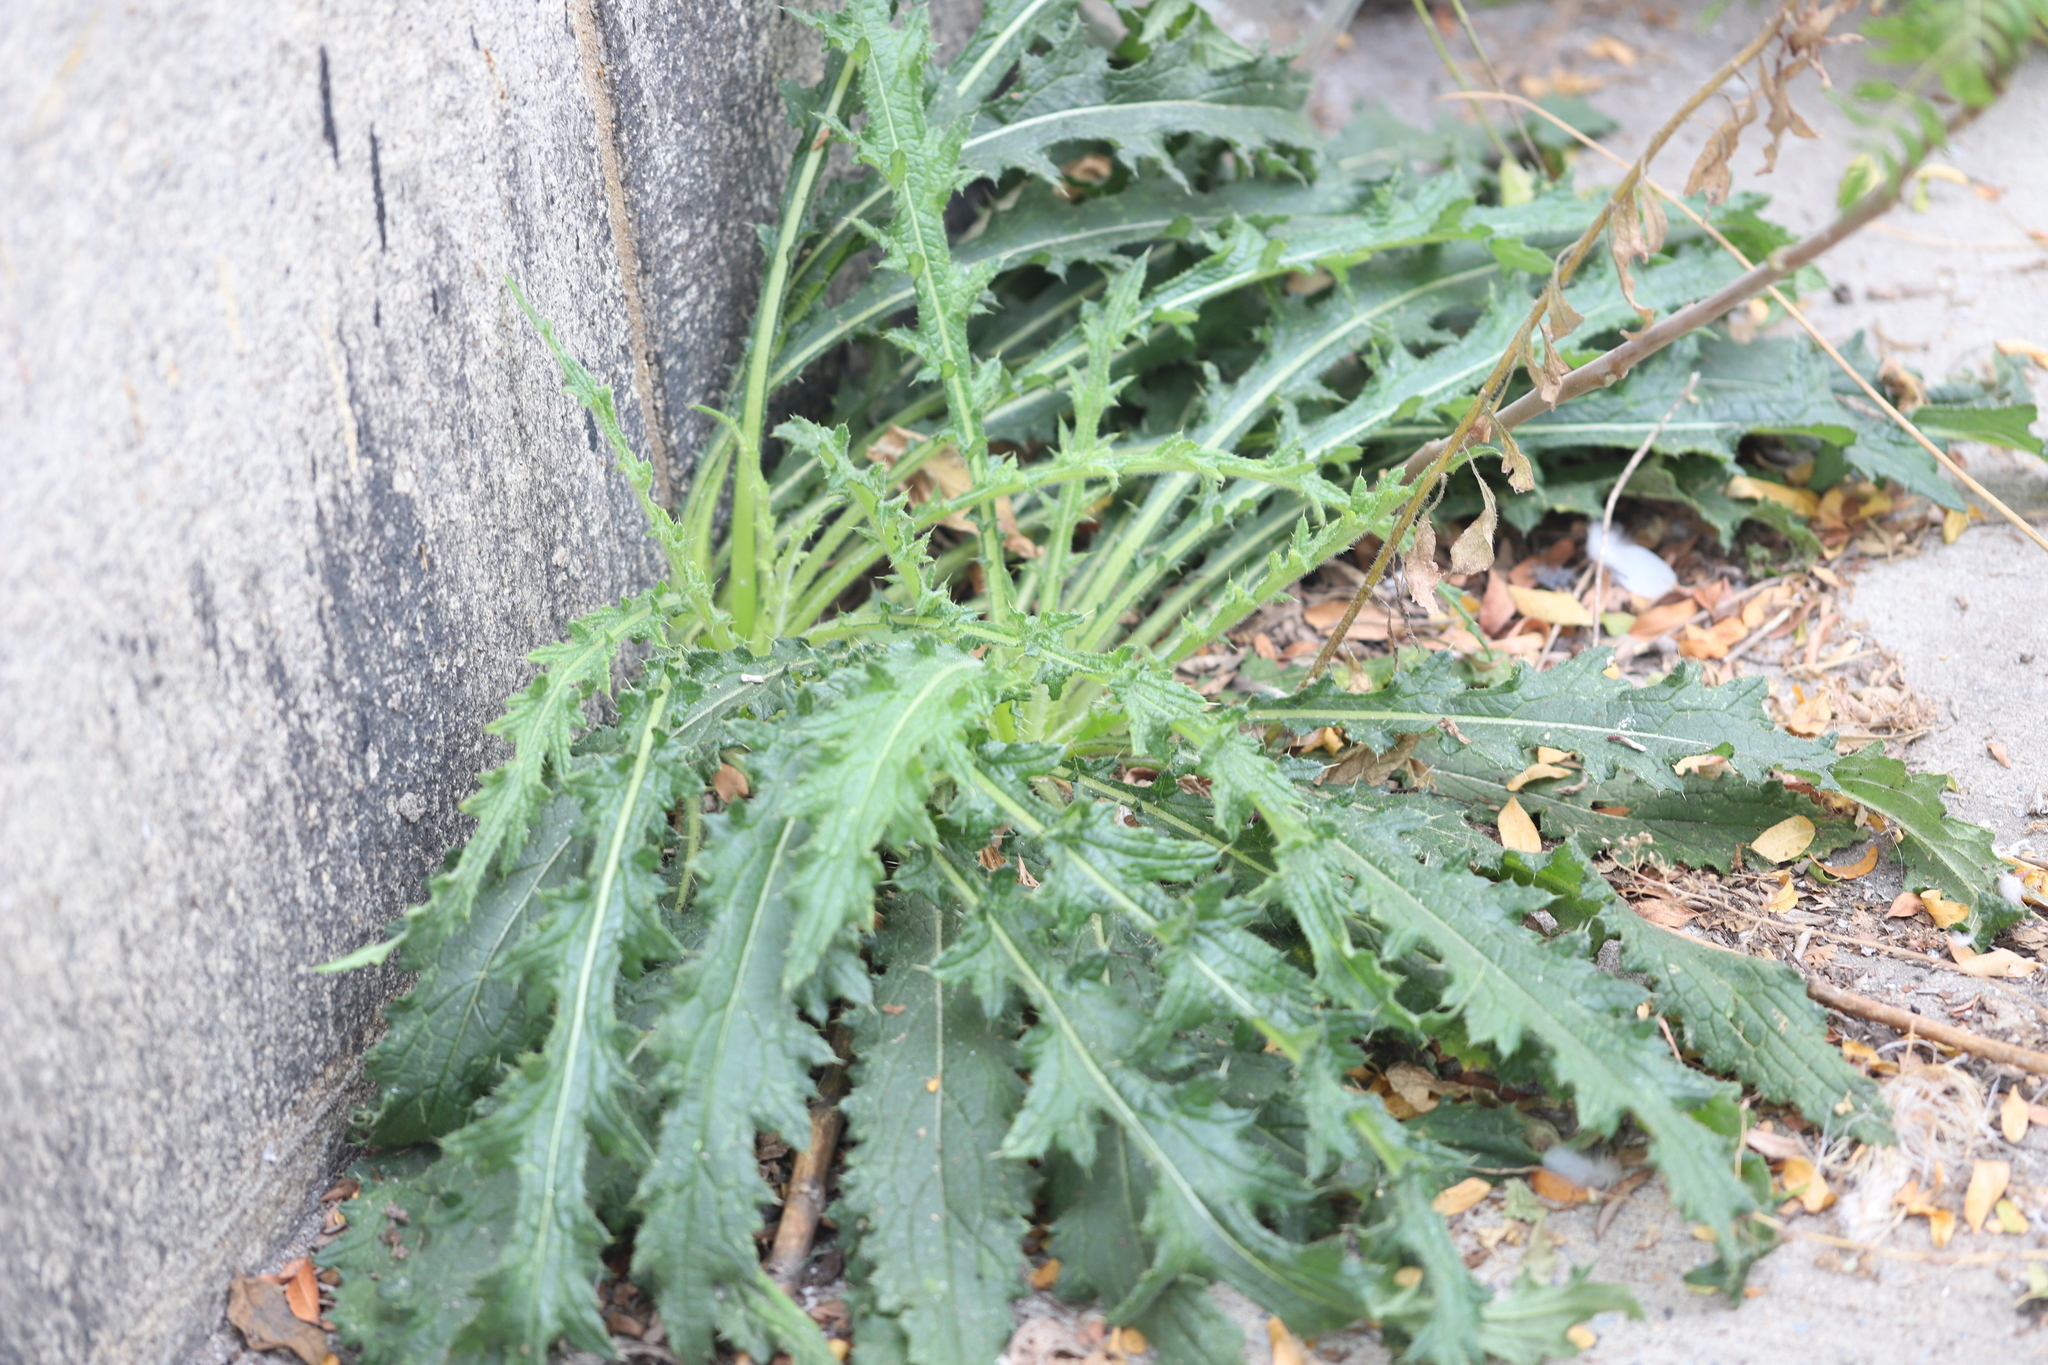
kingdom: Plantae
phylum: Tracheophyta
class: Magnoliopsida
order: Asterales
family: Asteraceae
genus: Cirsium
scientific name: Cirsium vulgare
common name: Bull thistle
